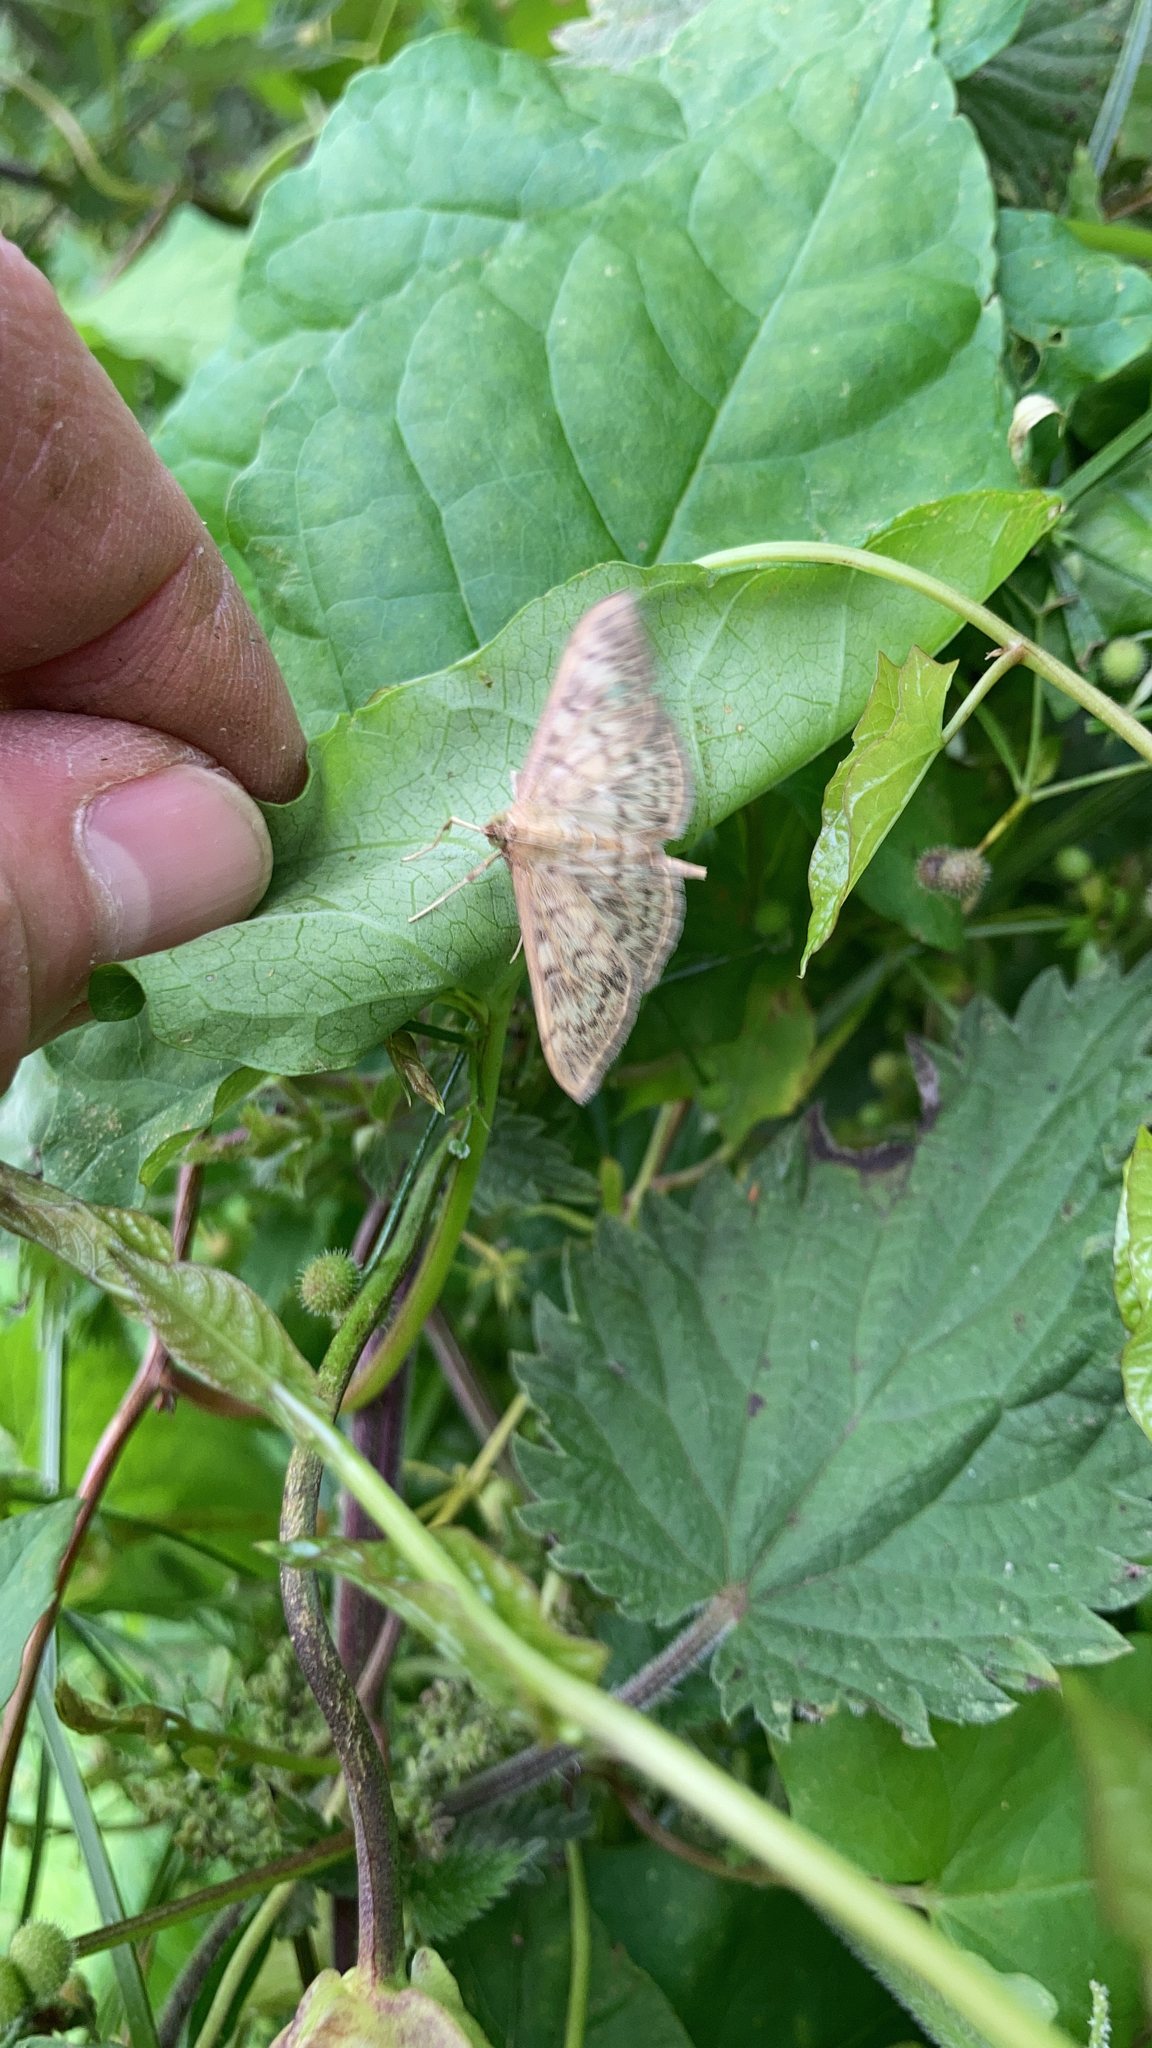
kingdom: Animalia
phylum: Arthropoda
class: Insecta
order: Lepidoptera
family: Crambidae
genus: Patania
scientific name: Patania ruralis
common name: Mother of pearl
